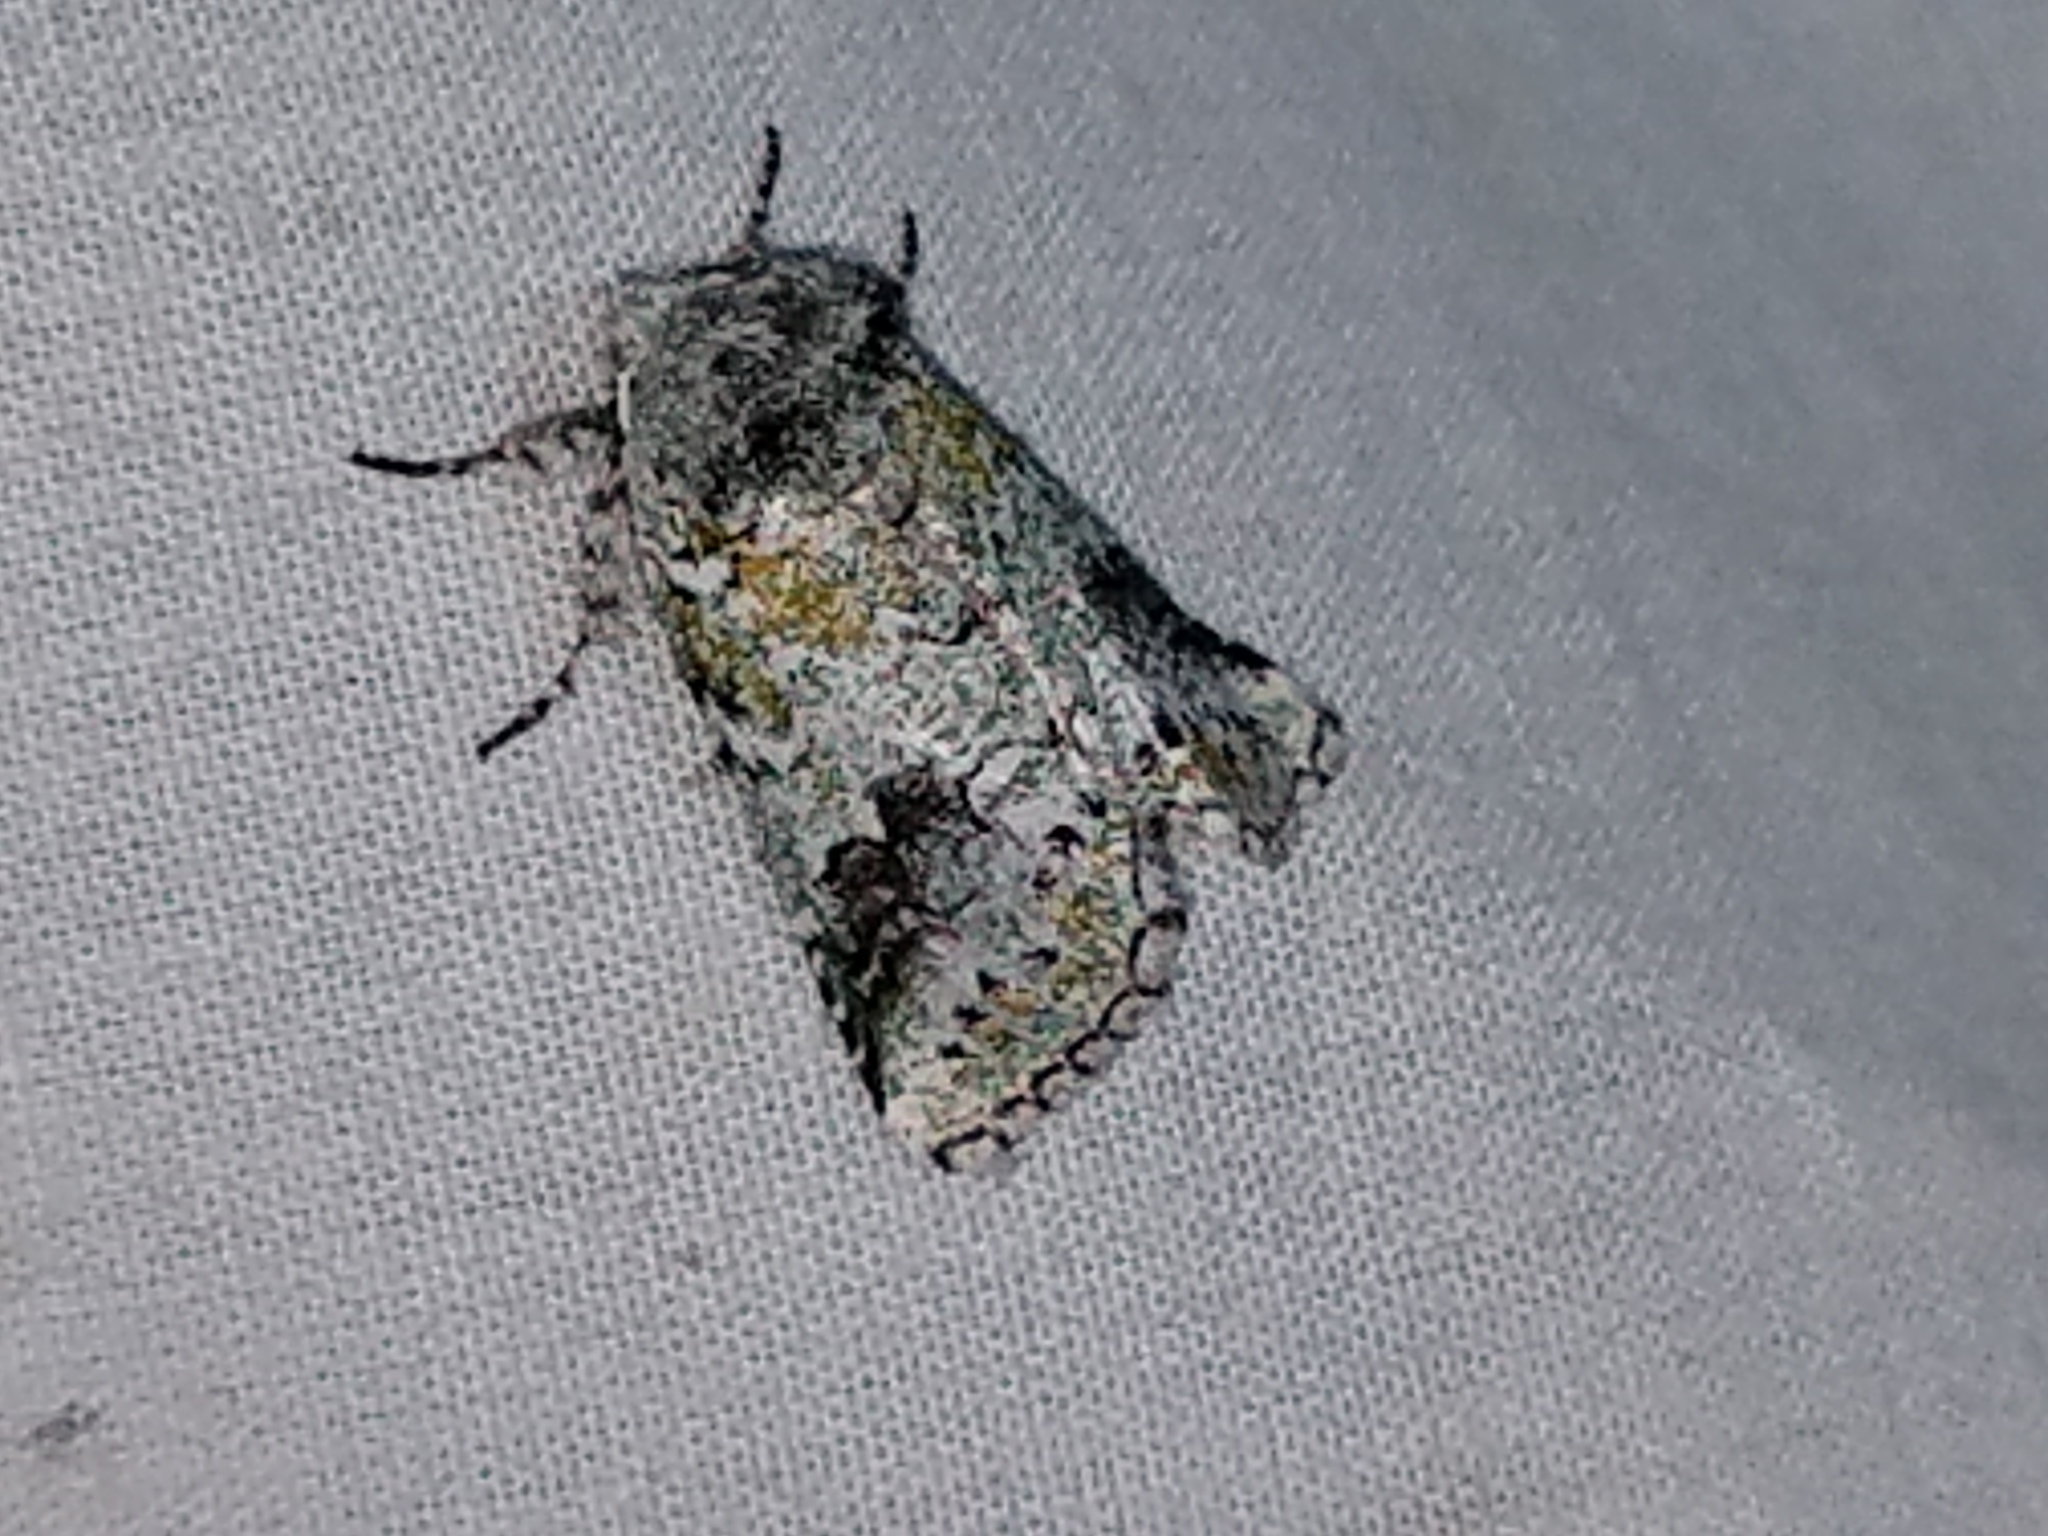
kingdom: Animalia
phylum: Arthropoda
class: Insecta
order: Lepidoptera
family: Notodontidae
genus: Litodonta
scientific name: Litodonta hydromeli
